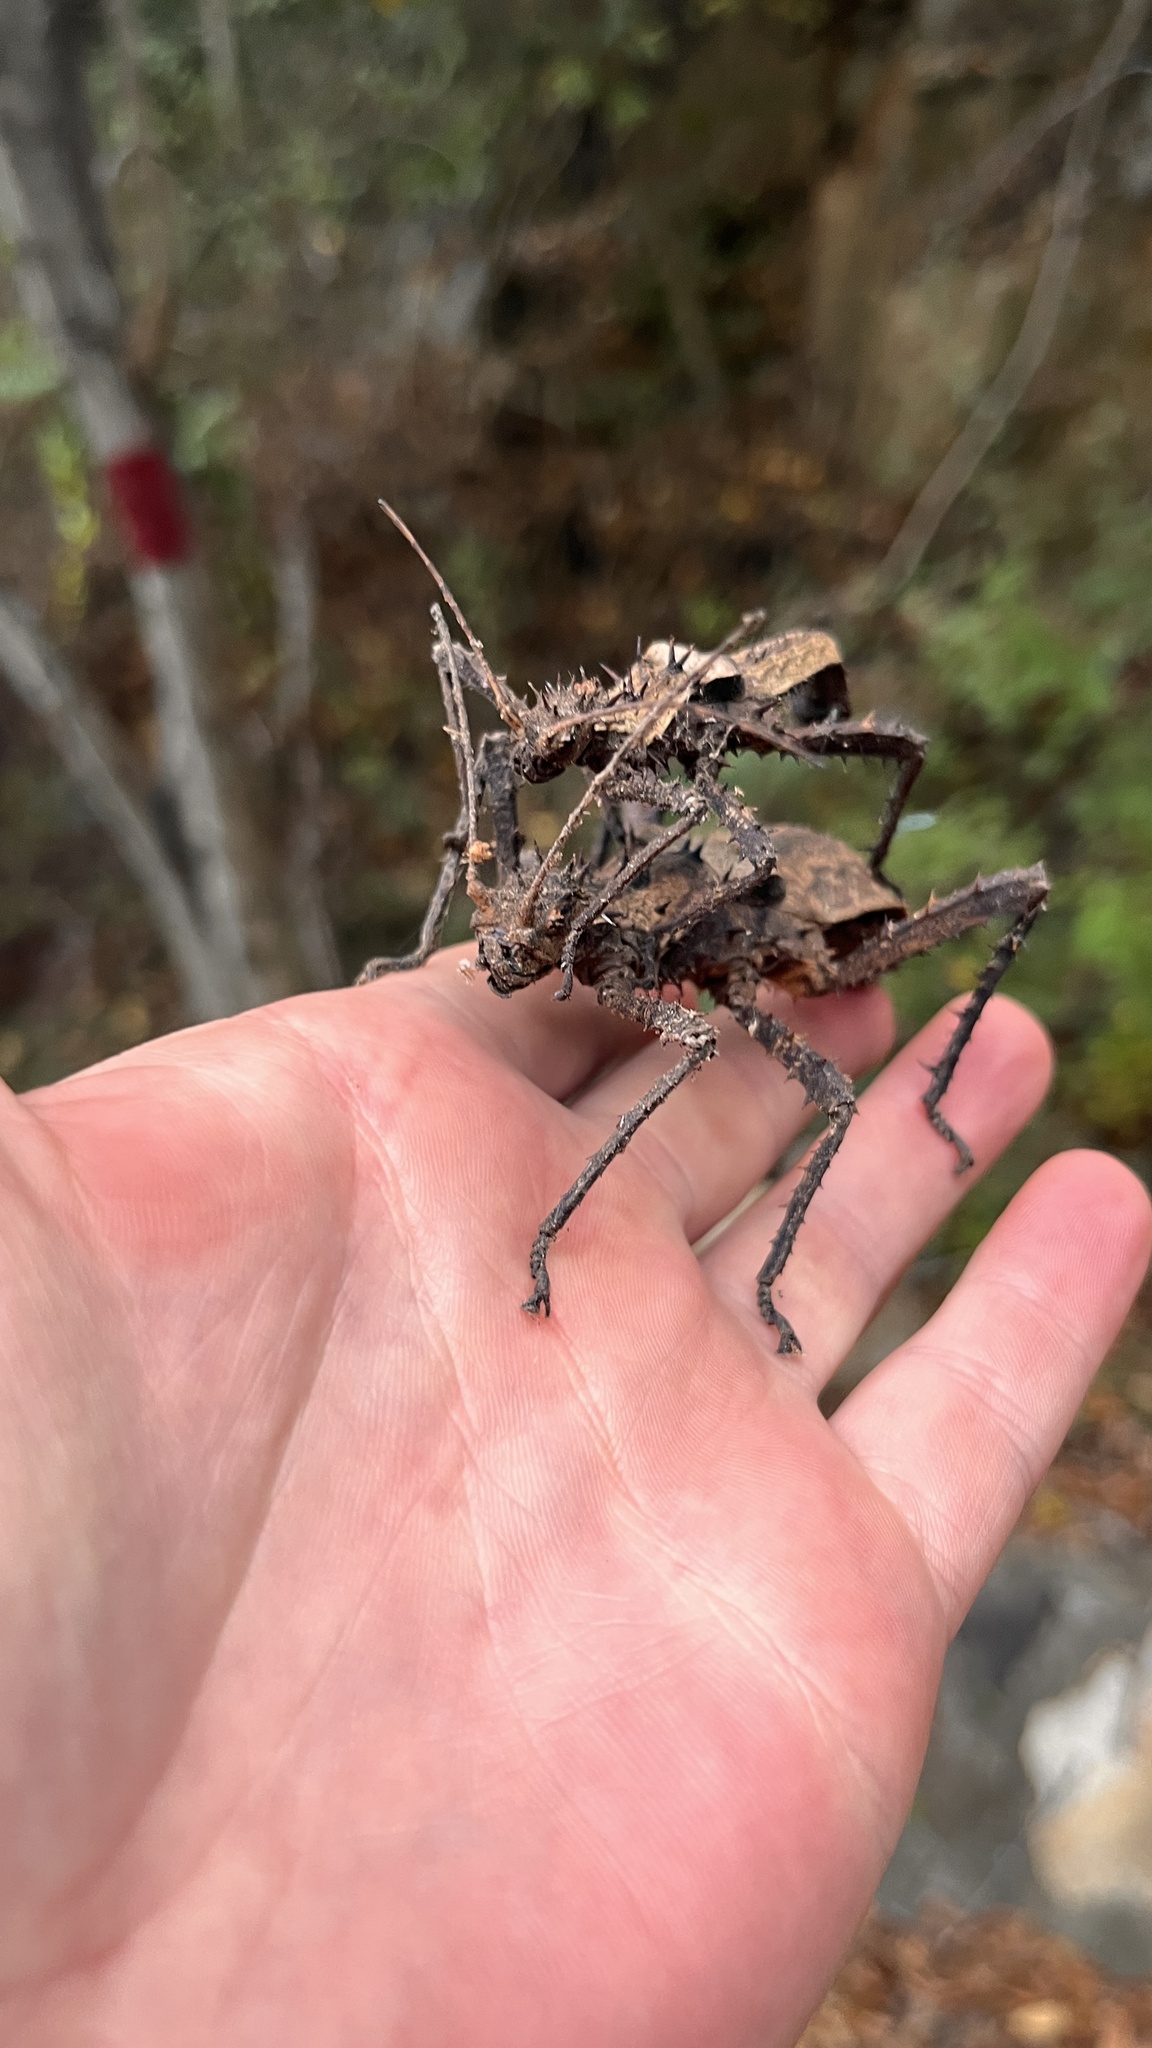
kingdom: Animalia
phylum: Arthropoda
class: Insecta
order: Phasmida
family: Heteropterygidae
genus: Haaniella
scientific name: Haaniella gorochovi
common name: Gorochov’s haaniella
